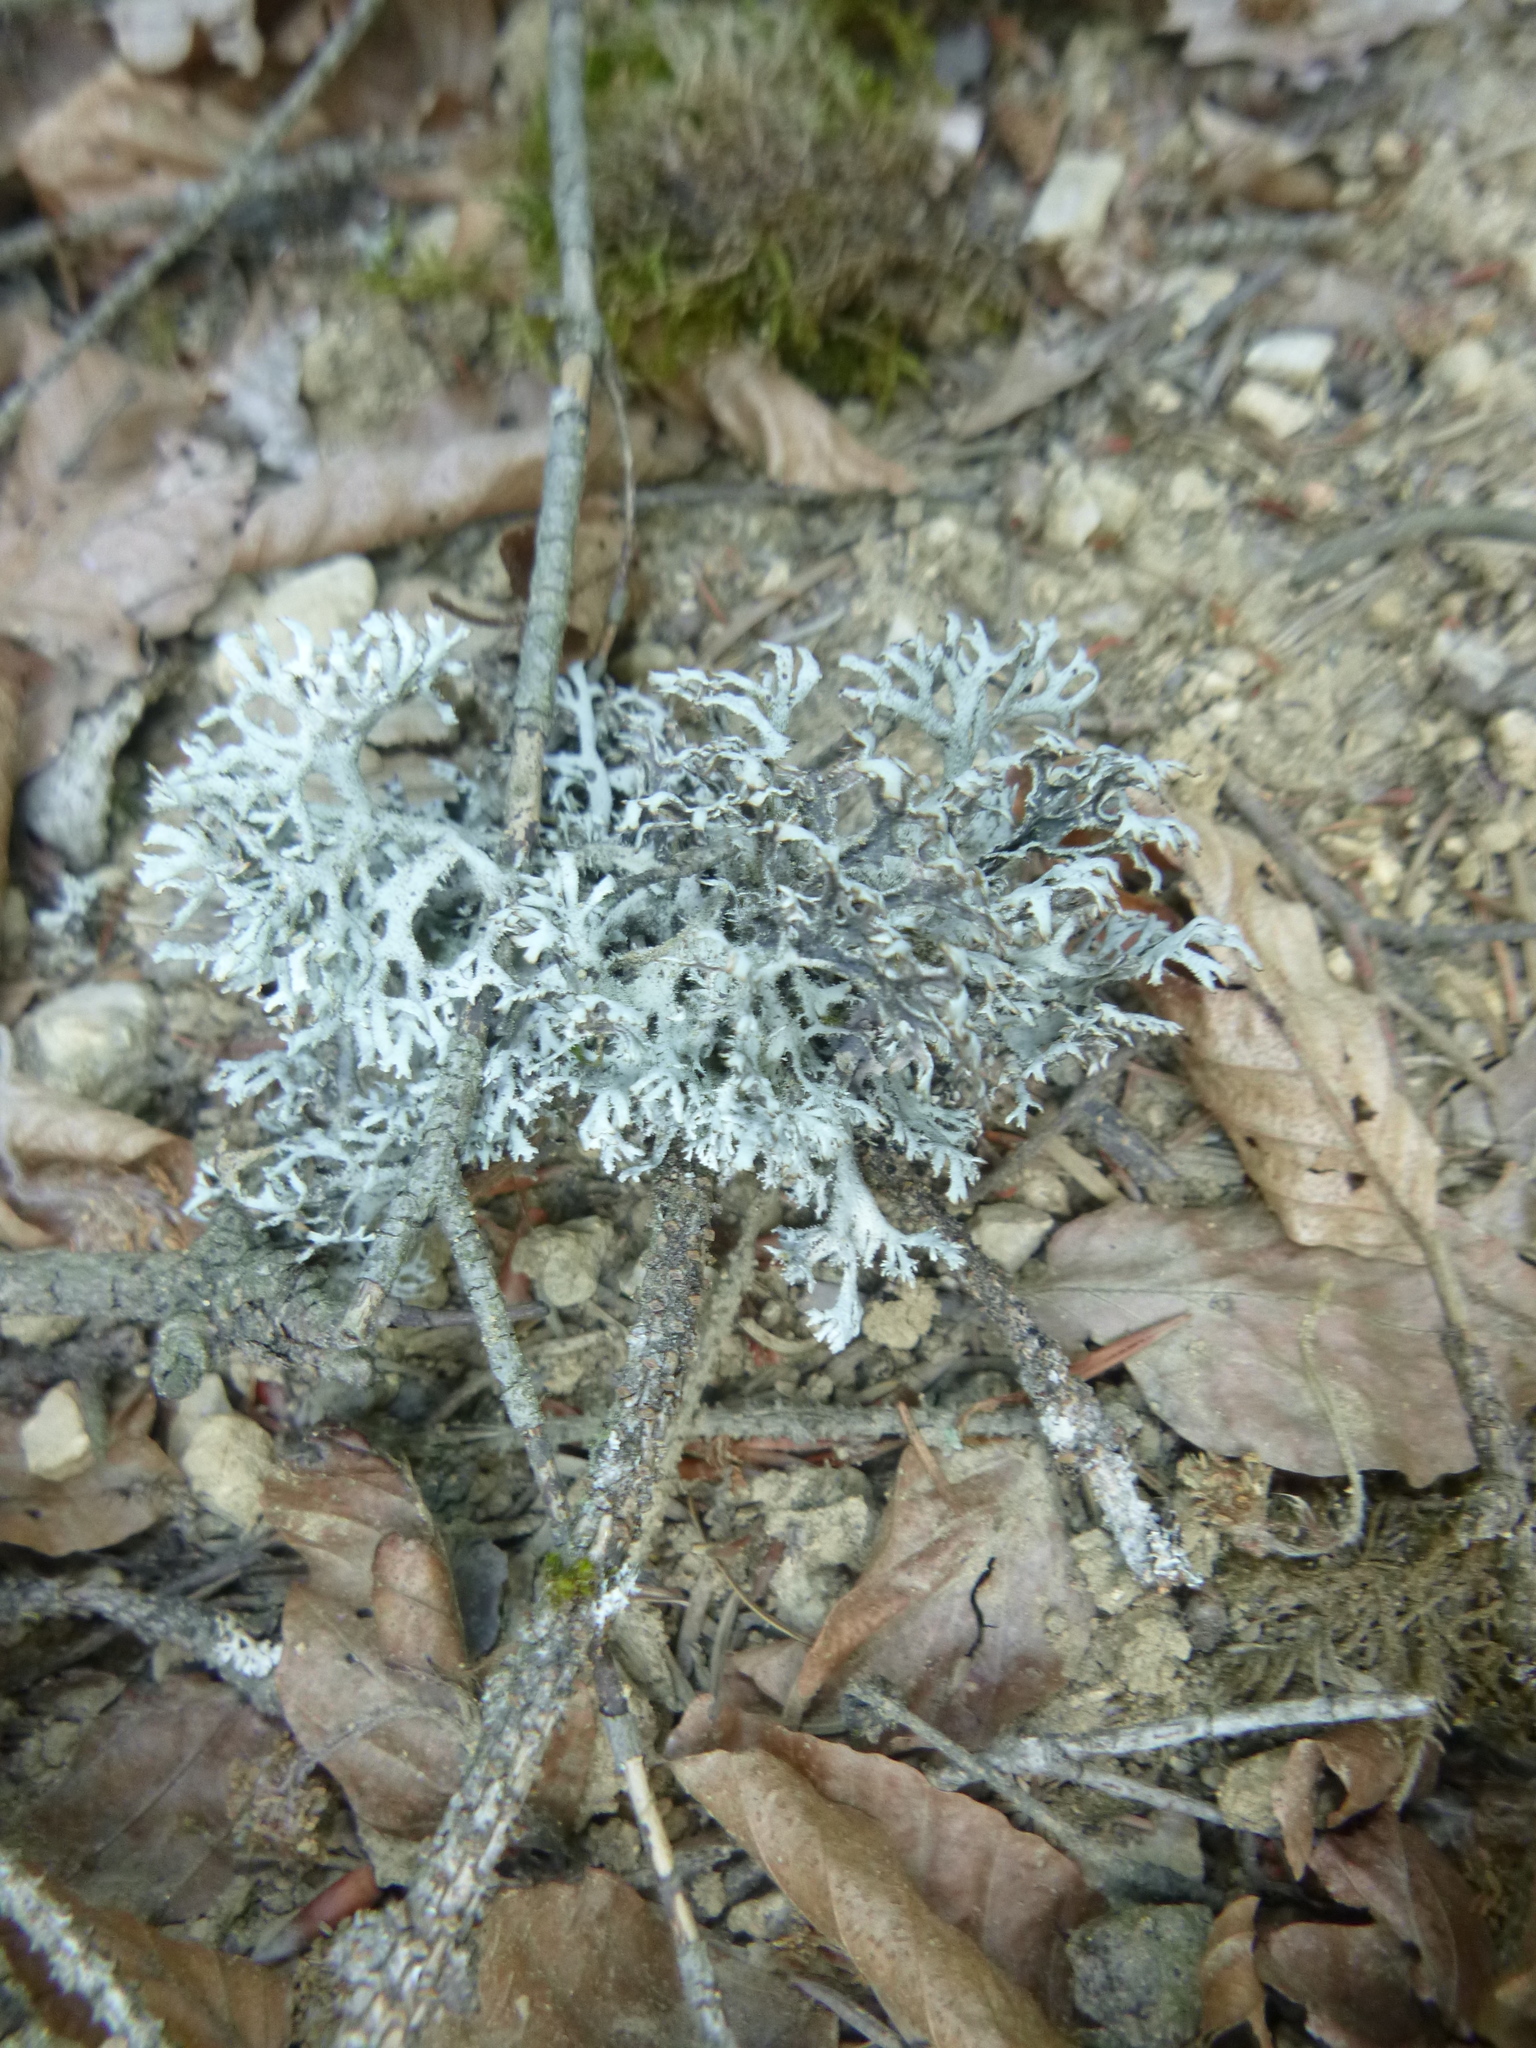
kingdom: Fungi
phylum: Ascomycota
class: Lecanoromycetes
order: Lecanorales
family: Parmeliaceae
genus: Pseudevernia
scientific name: Pseudevernia furfuracea
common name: Tree moss
